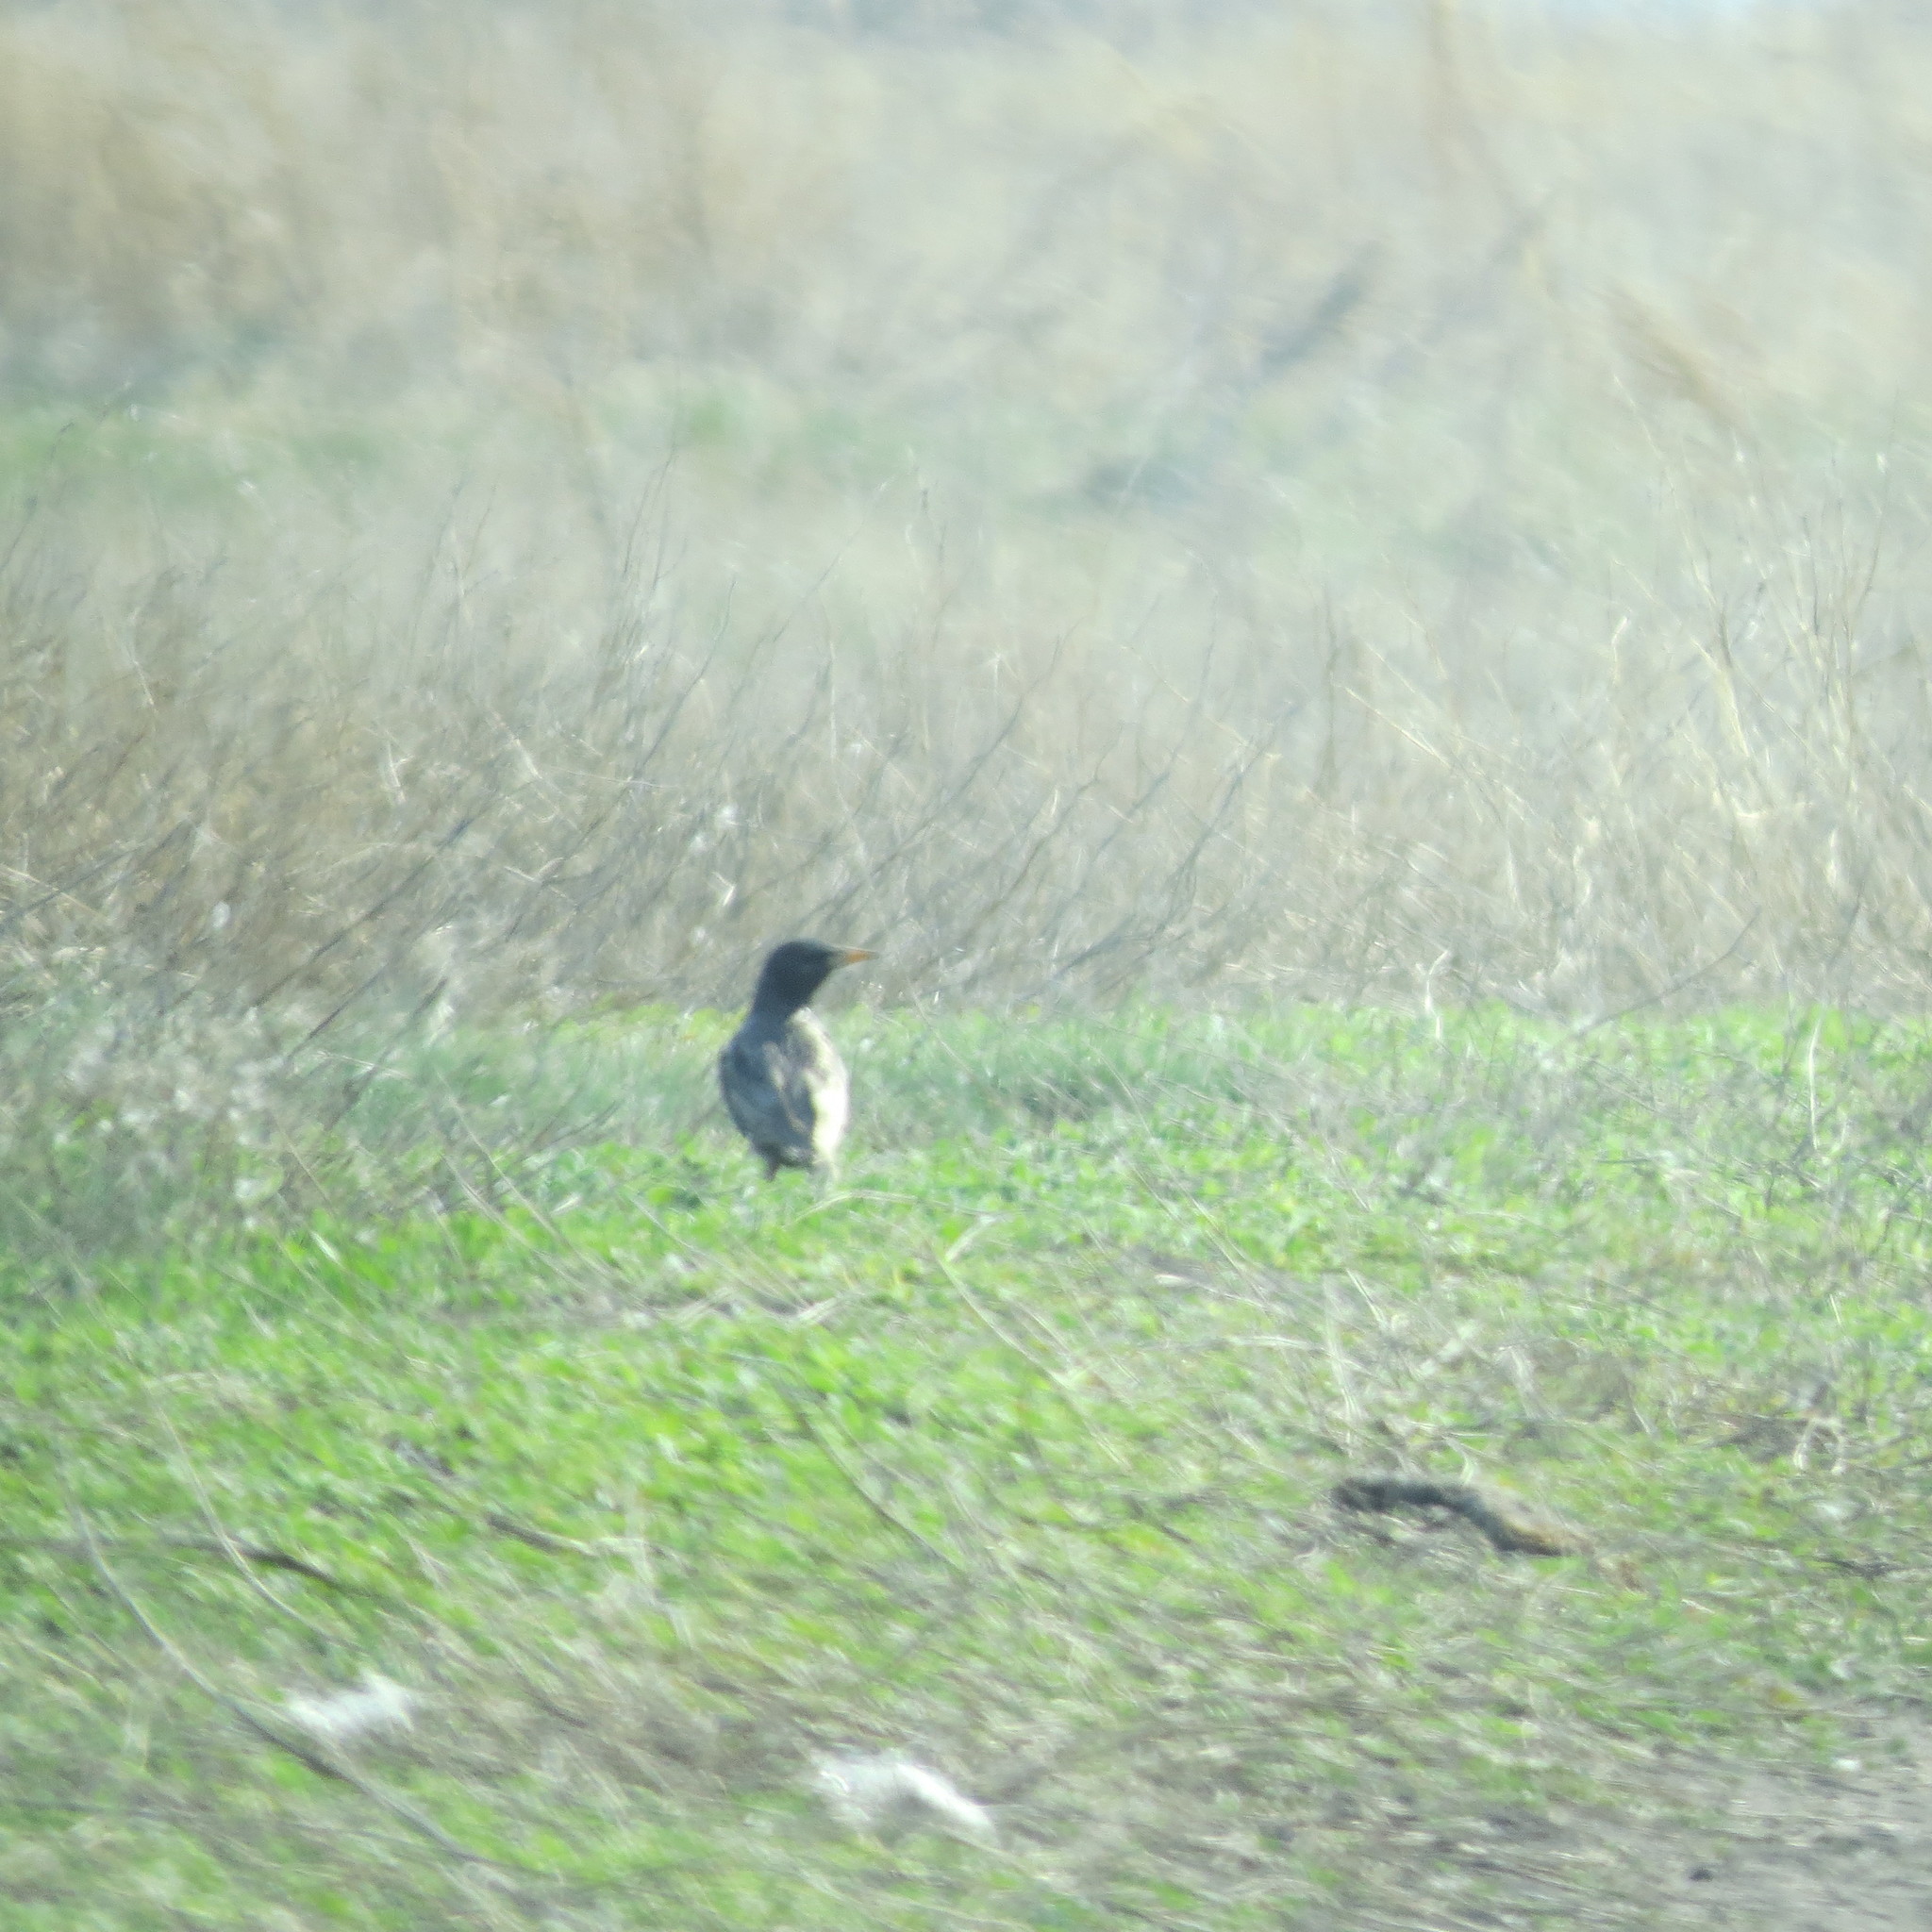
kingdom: Animalia
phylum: Chordata
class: Aves
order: Passeriformes
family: Sturnidae
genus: Sturnus
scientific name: Sturnus vulgaris
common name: Common starling
